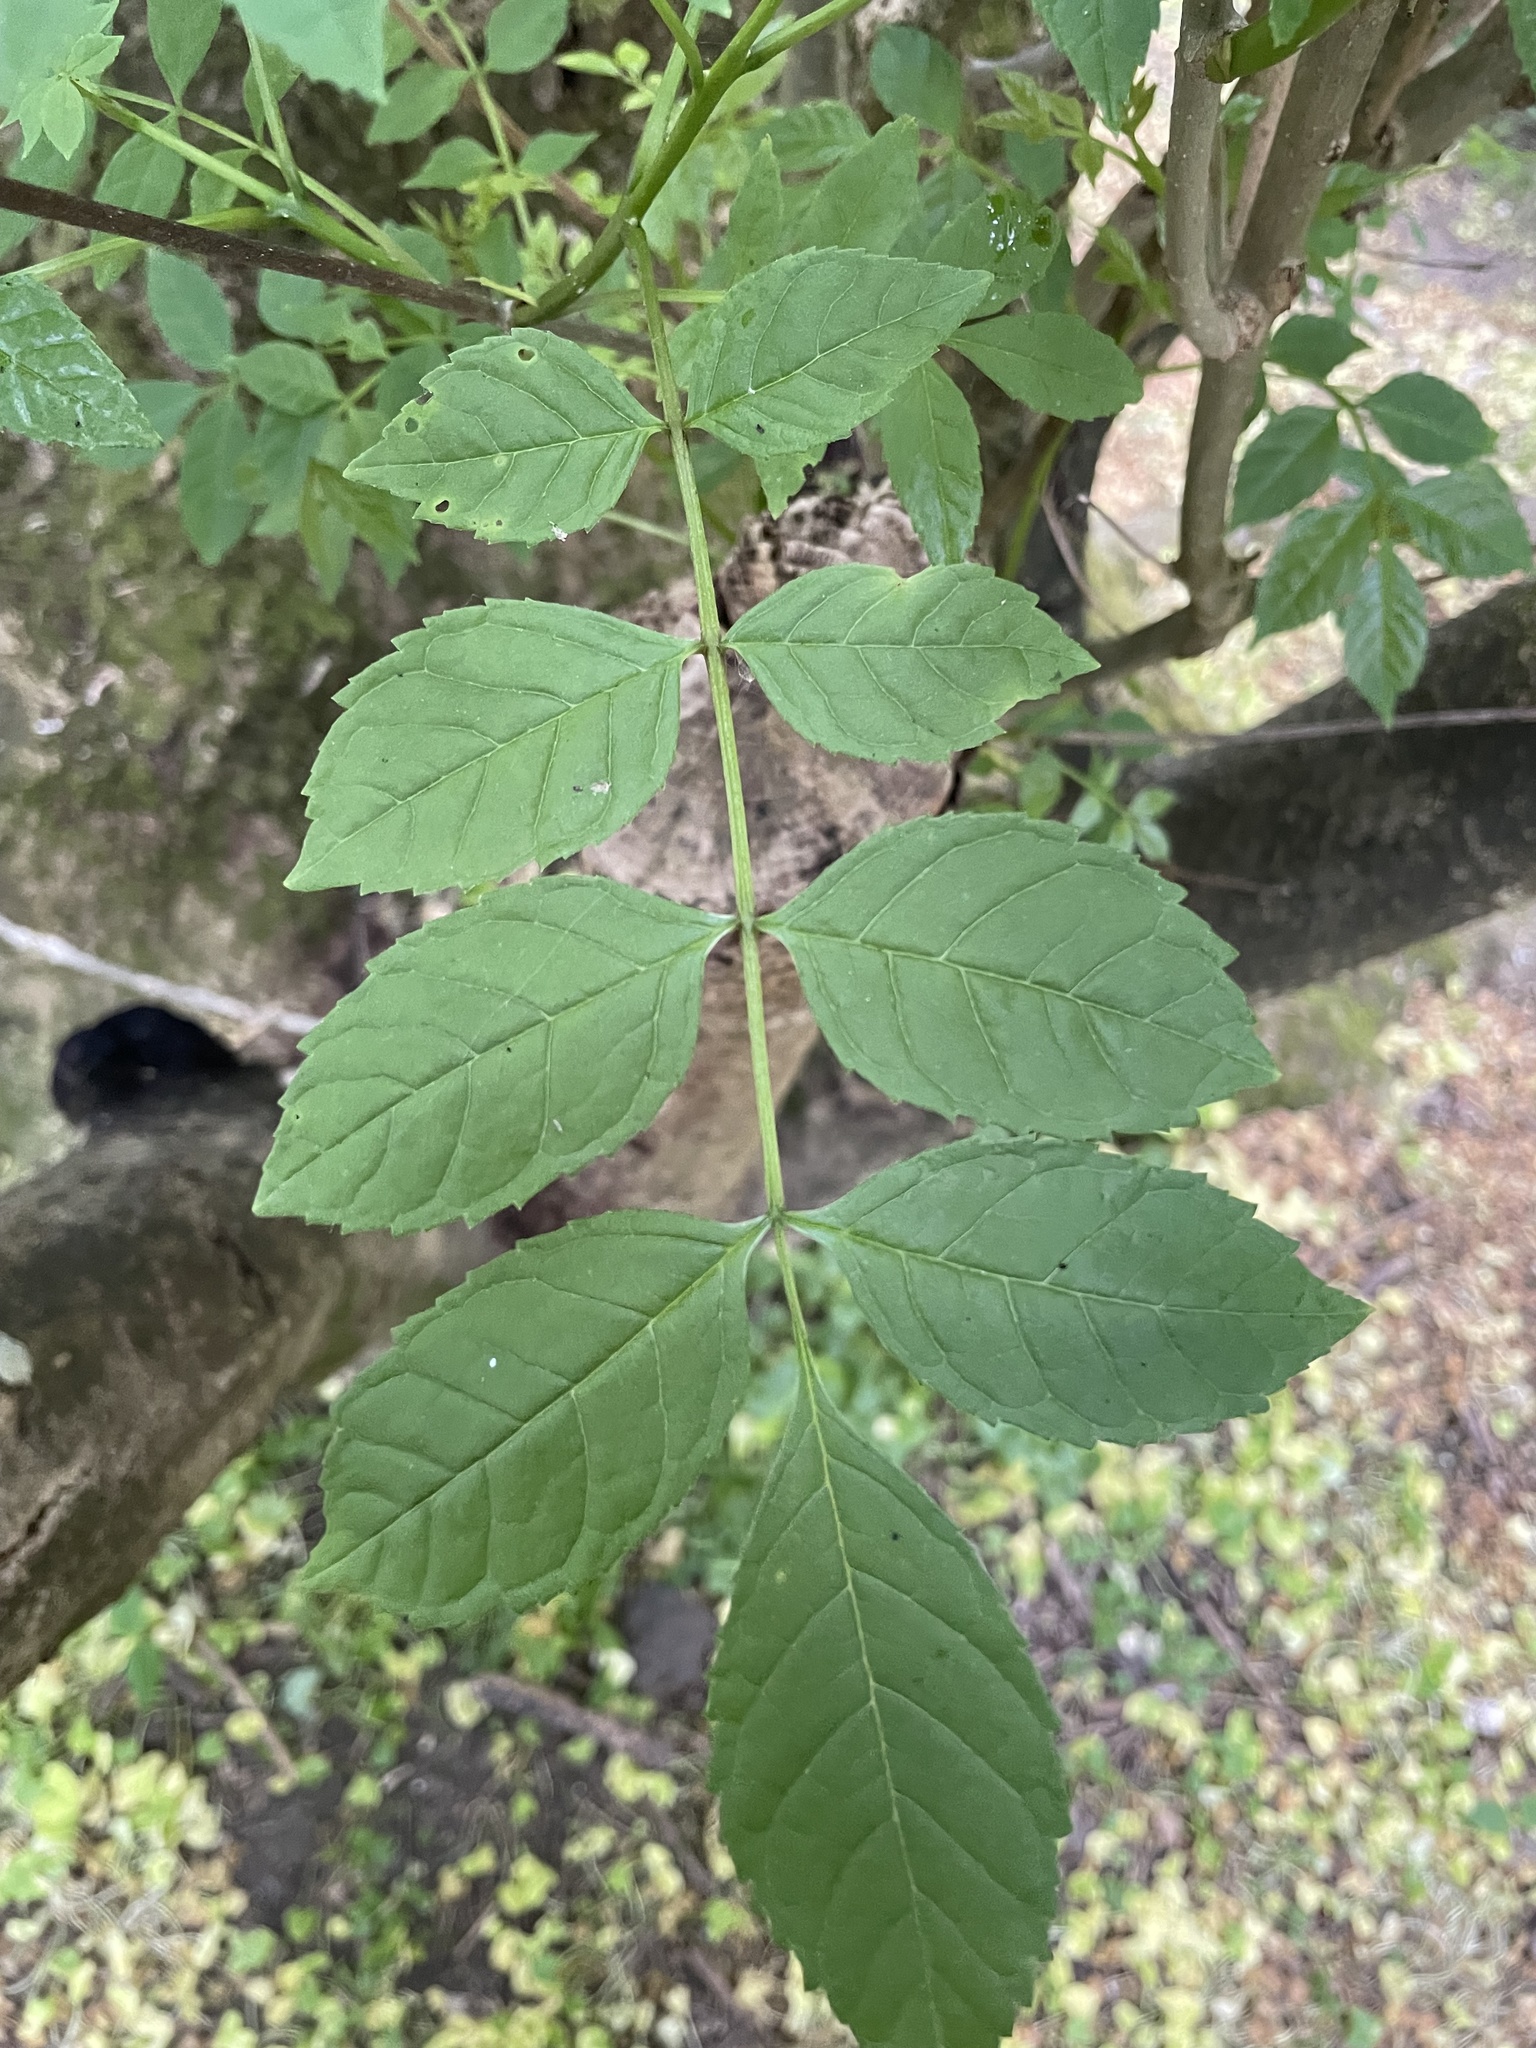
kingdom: Plantae
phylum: Tracheophyta
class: Magnoliopsida
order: Lamiales
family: Oleaceae
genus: Fraxinus
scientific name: Fraxinus excelsior
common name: European ash
